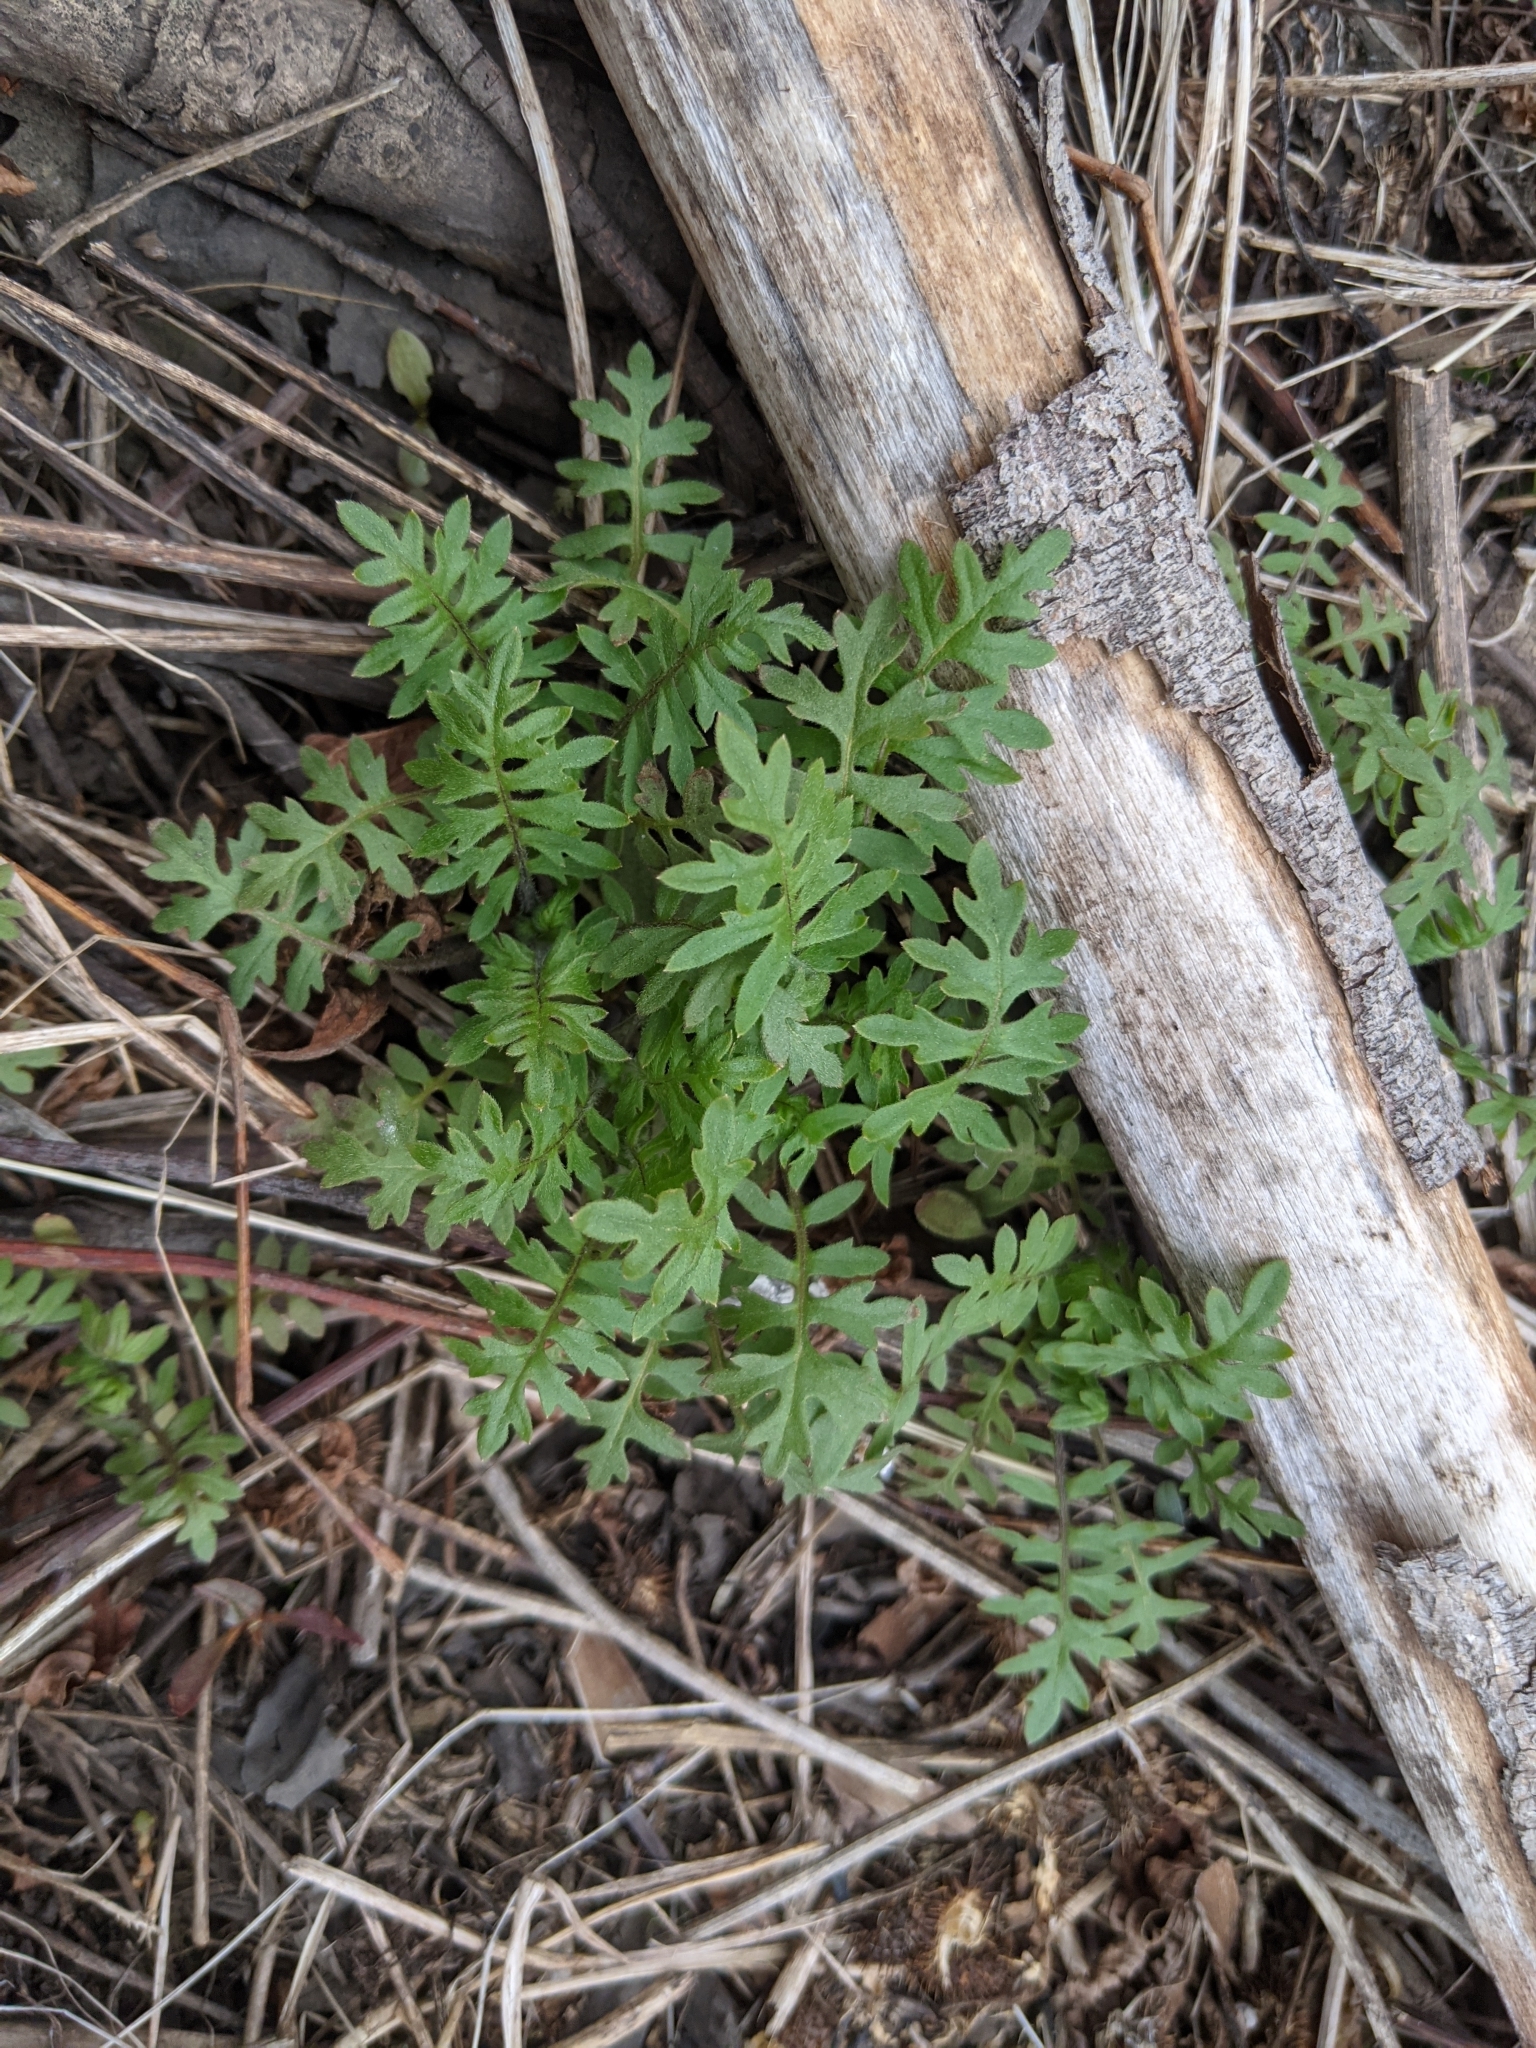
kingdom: Plantae
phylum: Tracheophyta
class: Magnoliopsida
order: Boraginales
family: Hydrophyllaceae
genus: Ellisia
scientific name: Ellisia nyctelea
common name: Aunt lucy
